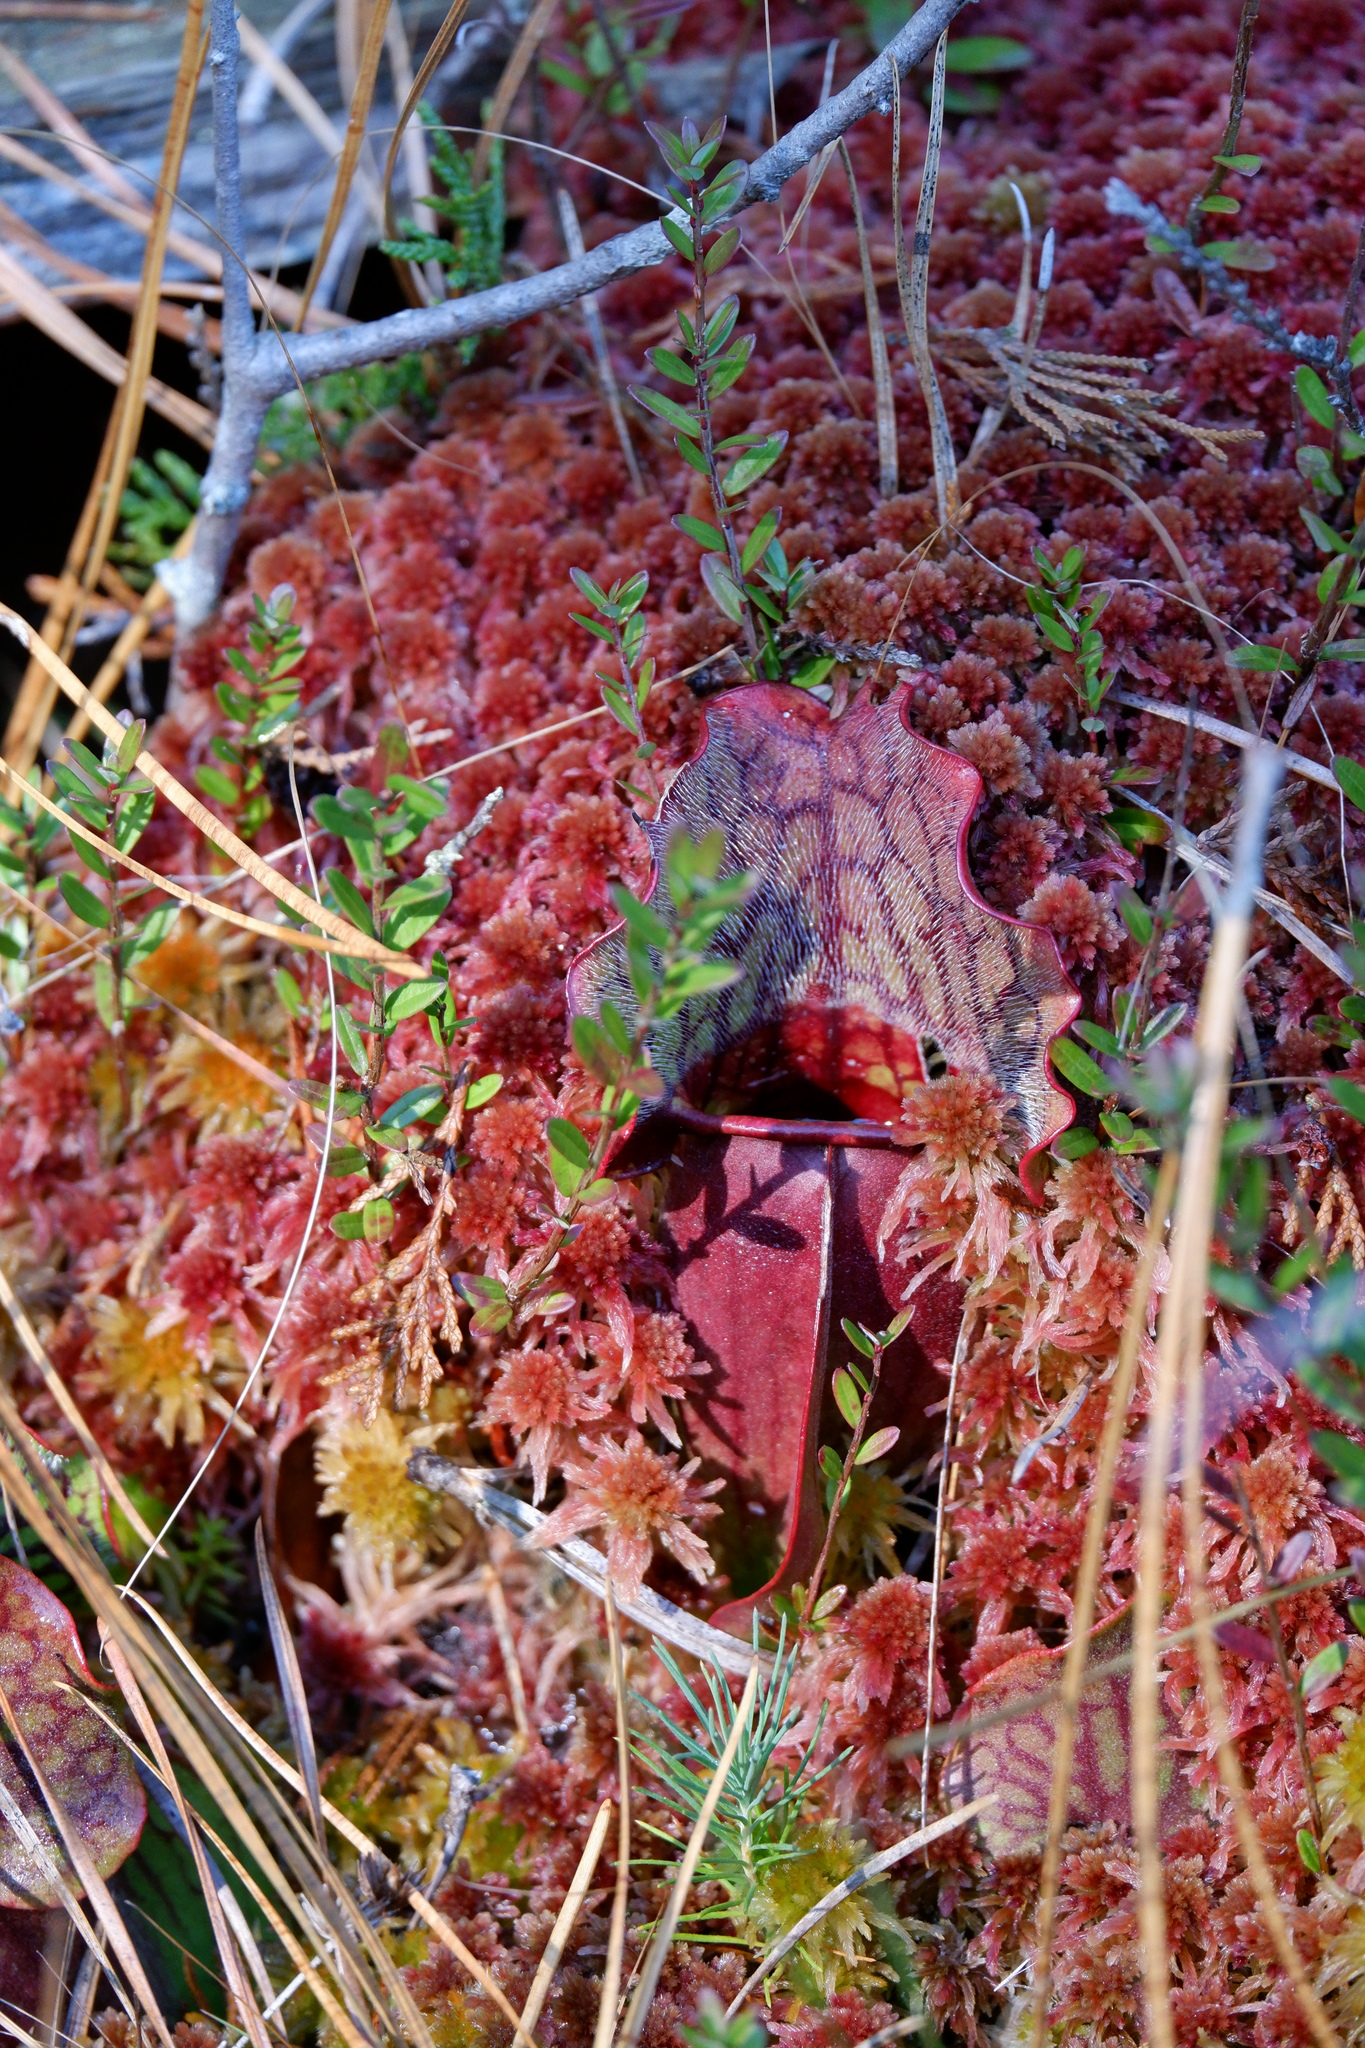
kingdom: Plantae
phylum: Tracheophyta
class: Magnoliopsida
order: Ericales
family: Sarraceniaceae
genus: Sarracenia
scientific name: Sarracenia purpurea
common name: Pitcherplant
